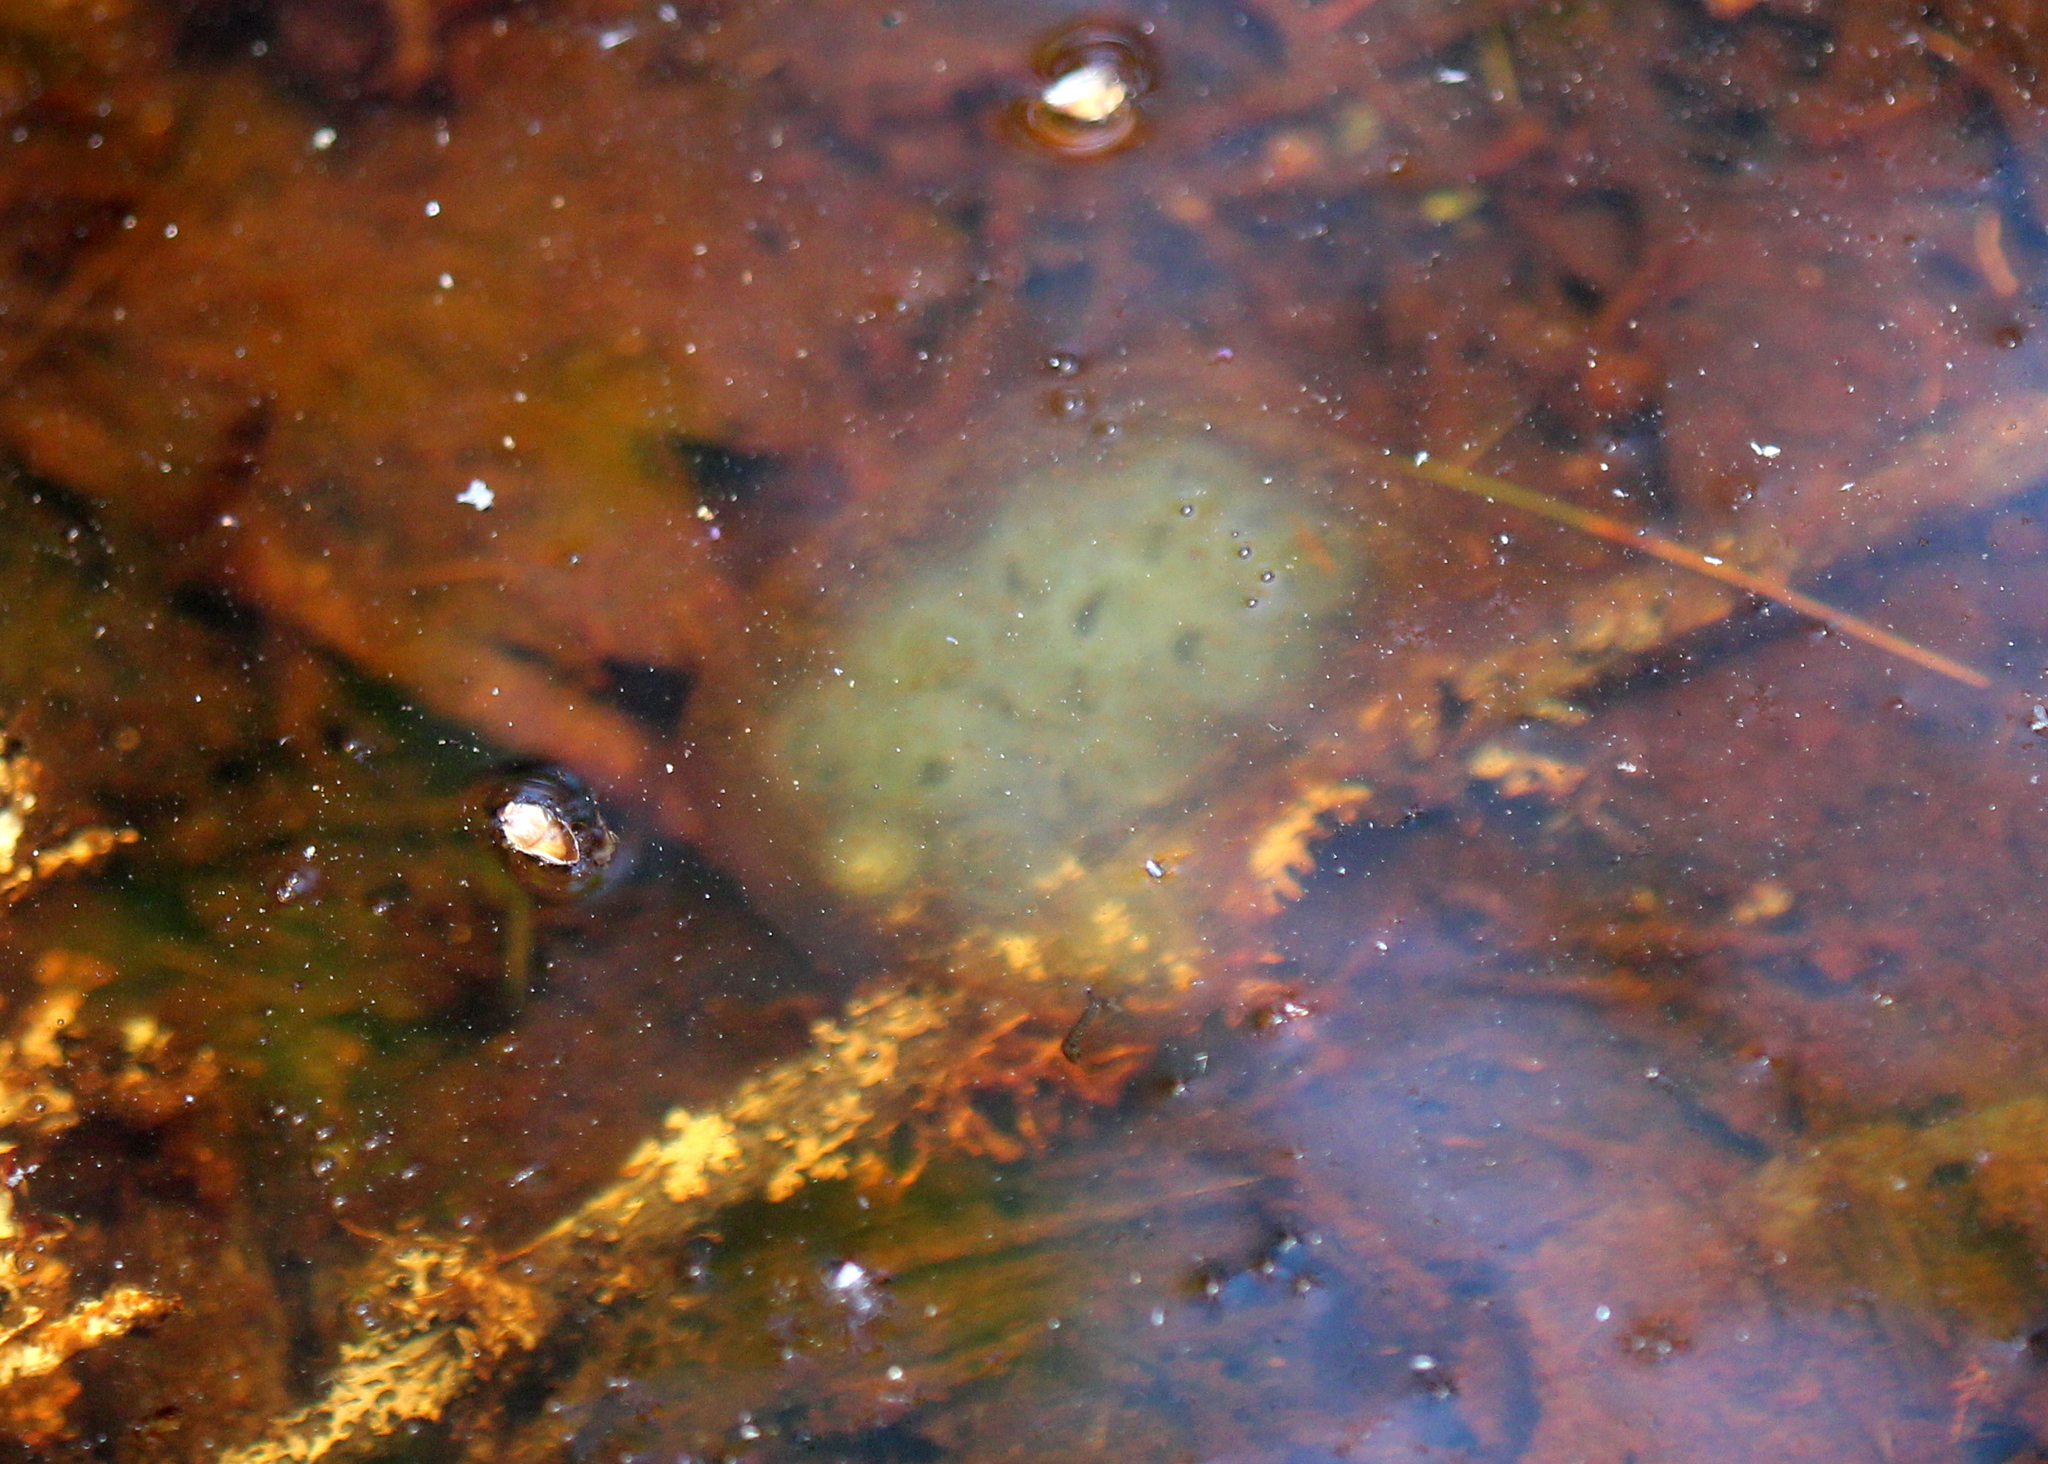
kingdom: Animalia
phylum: Chordata
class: Amphibia
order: Caudata
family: Ambystomatidae
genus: Ambystoma
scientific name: Ambystoma maculatum
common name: Spotted salamander
